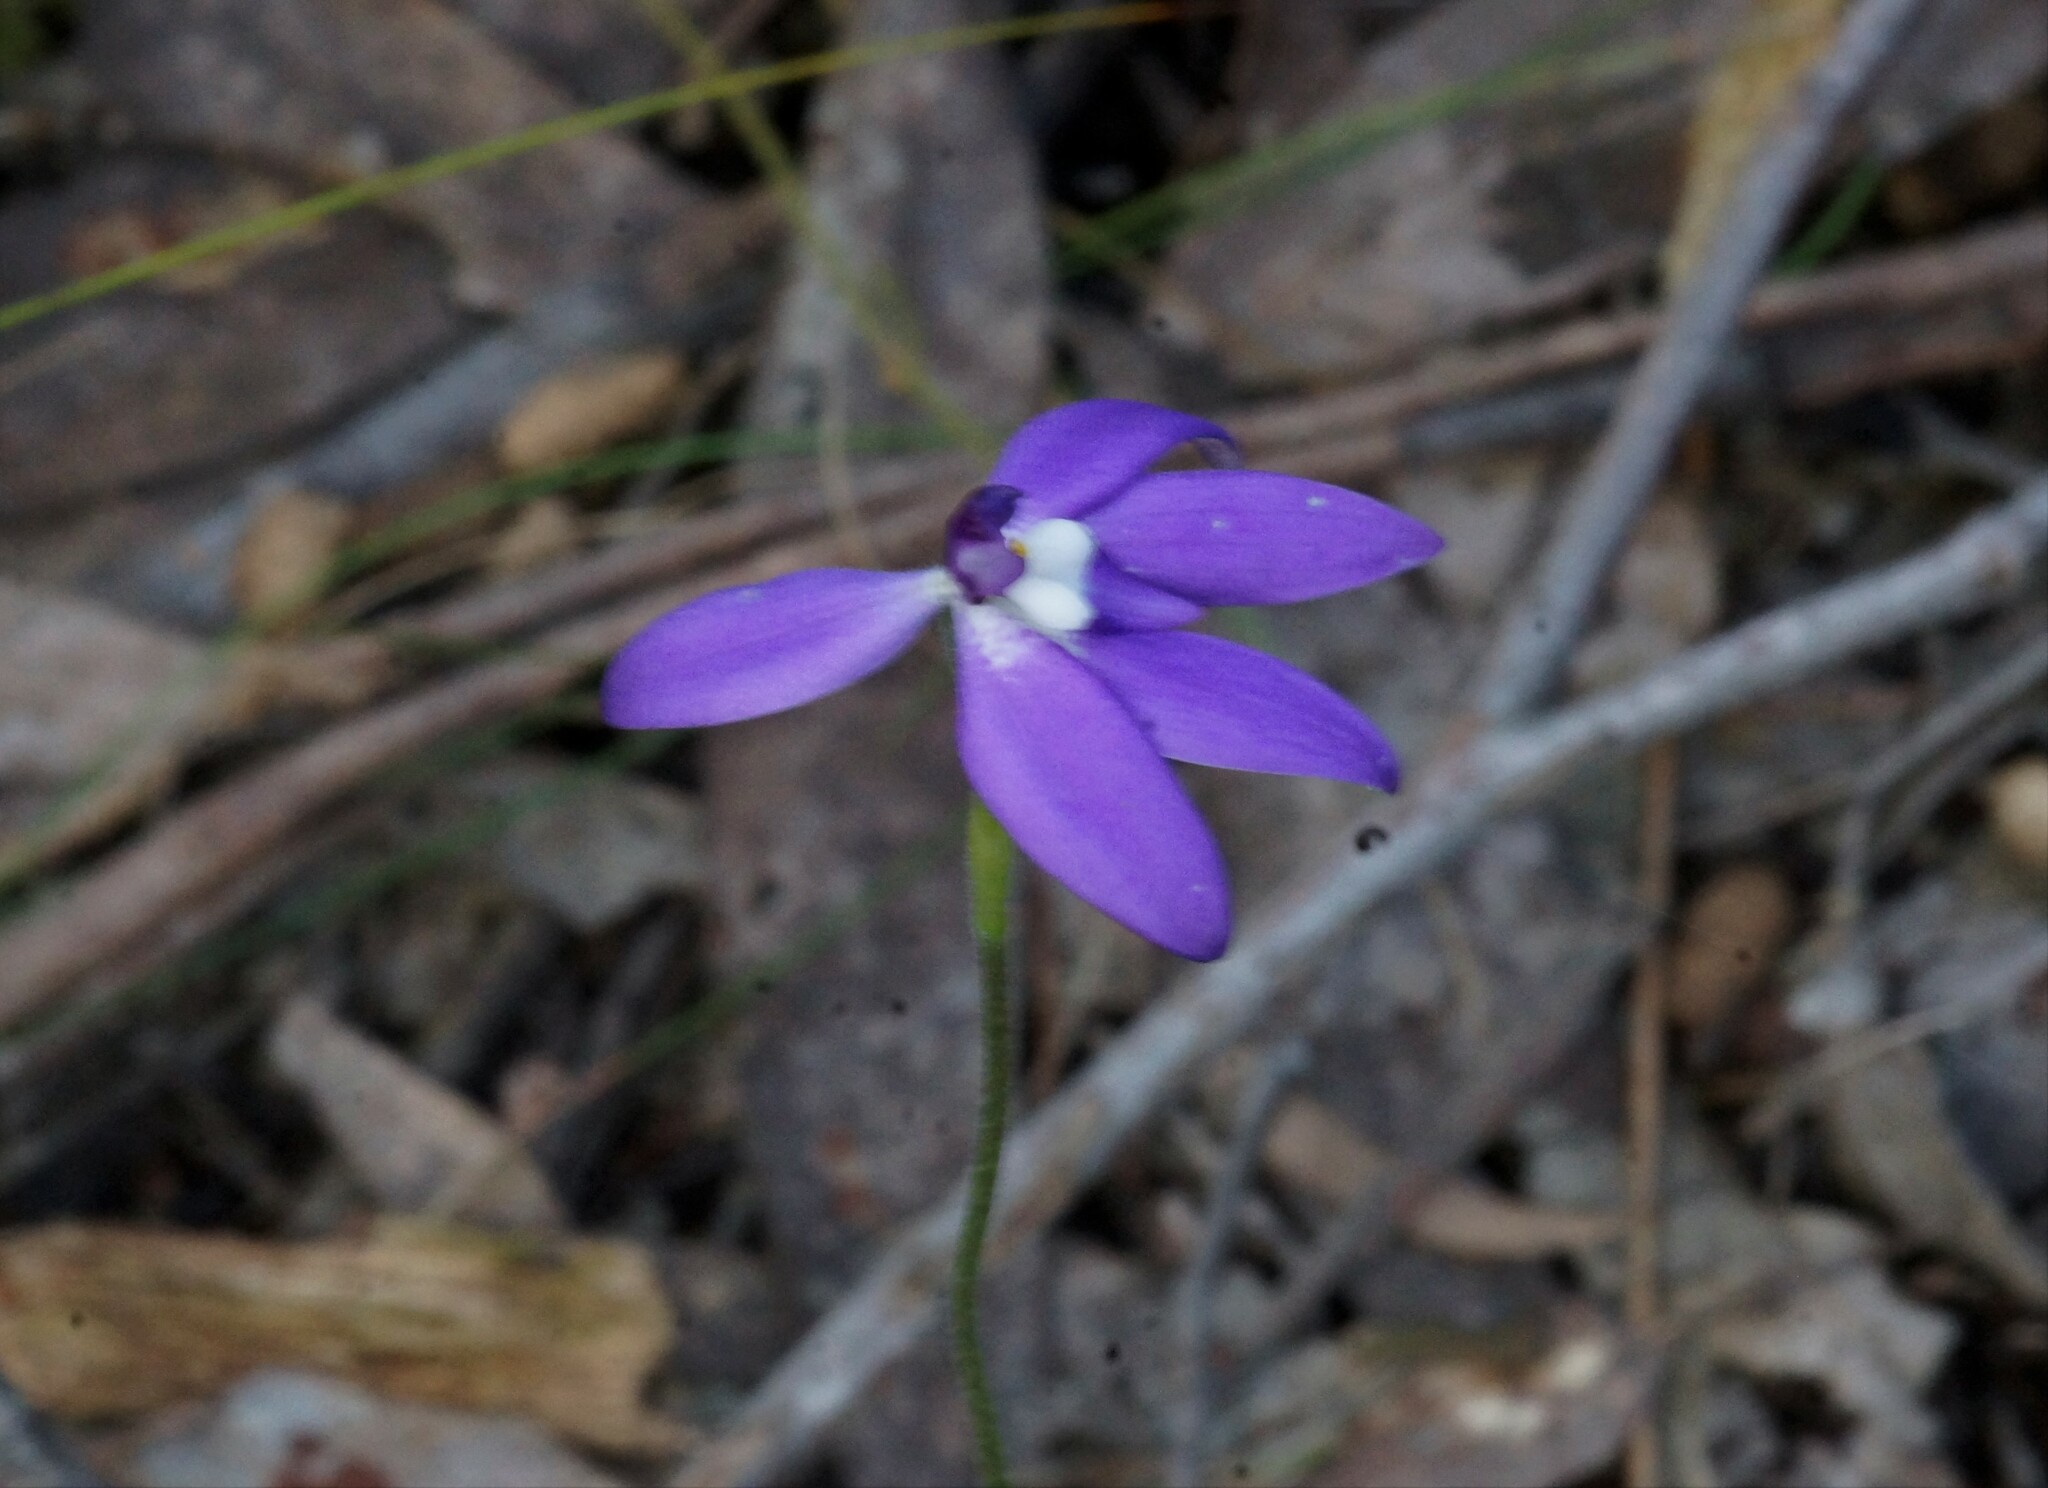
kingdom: Plantae
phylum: Tracheophyta
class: Liliopsida
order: Asparagales
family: Orchidaceae
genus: Caladenia
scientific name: Caladenia major
